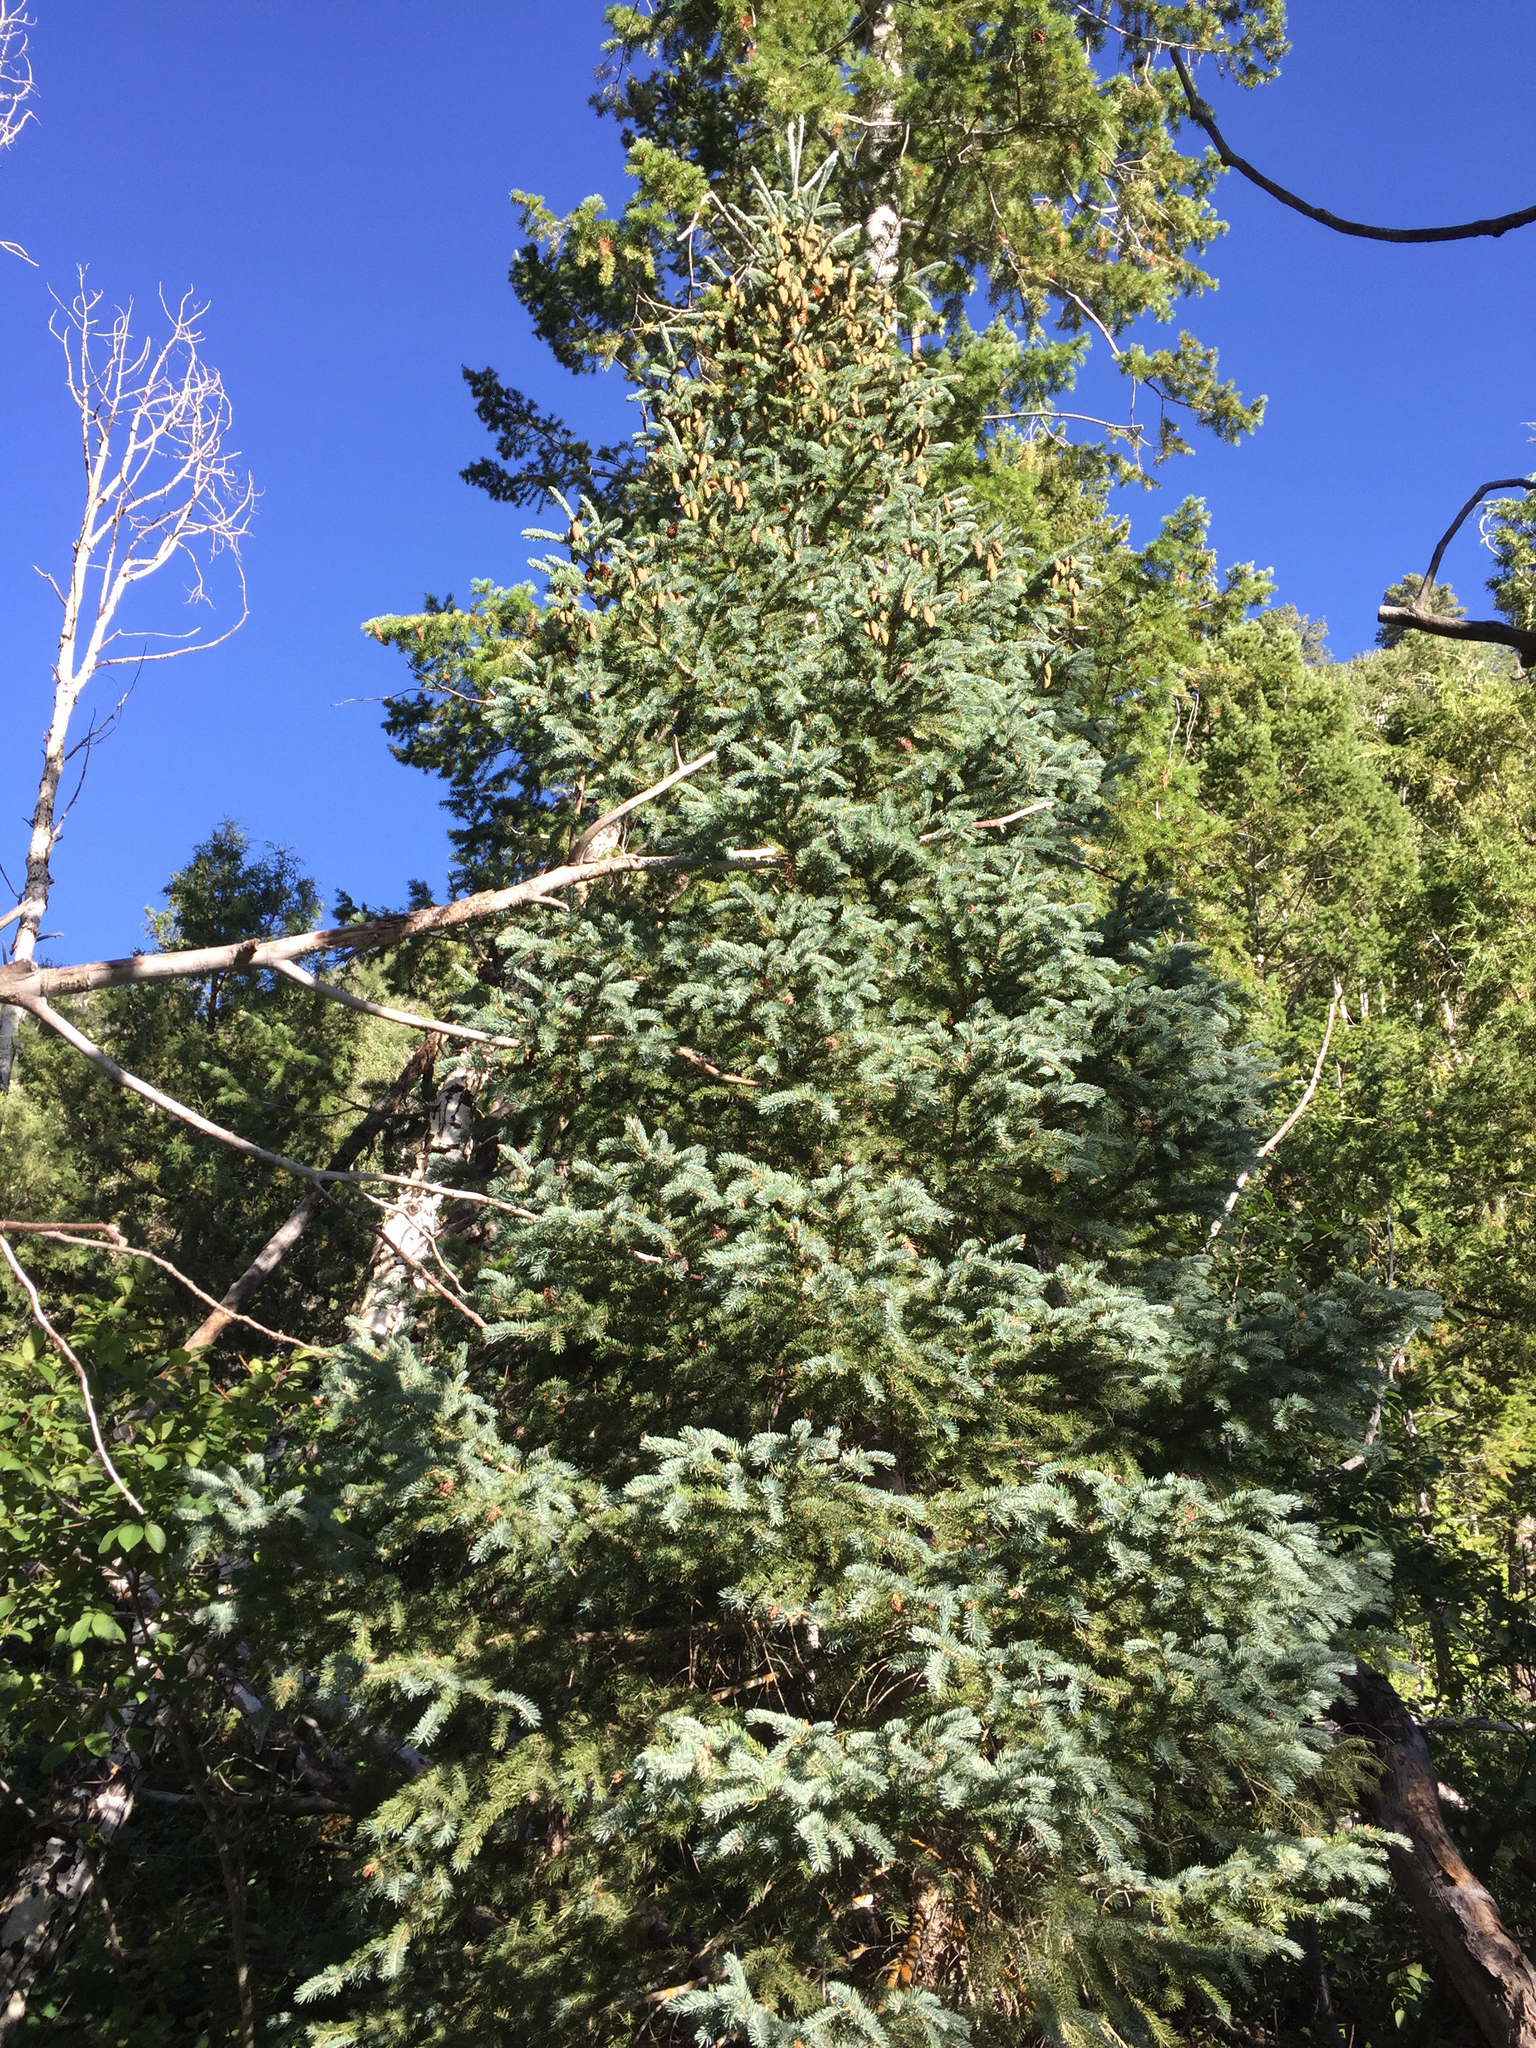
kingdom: Plantae
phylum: Tracheophyta
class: Pinopsida
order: Pinales
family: Pinaceae
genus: Picea
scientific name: Picea pungens
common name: Colorado spruce
